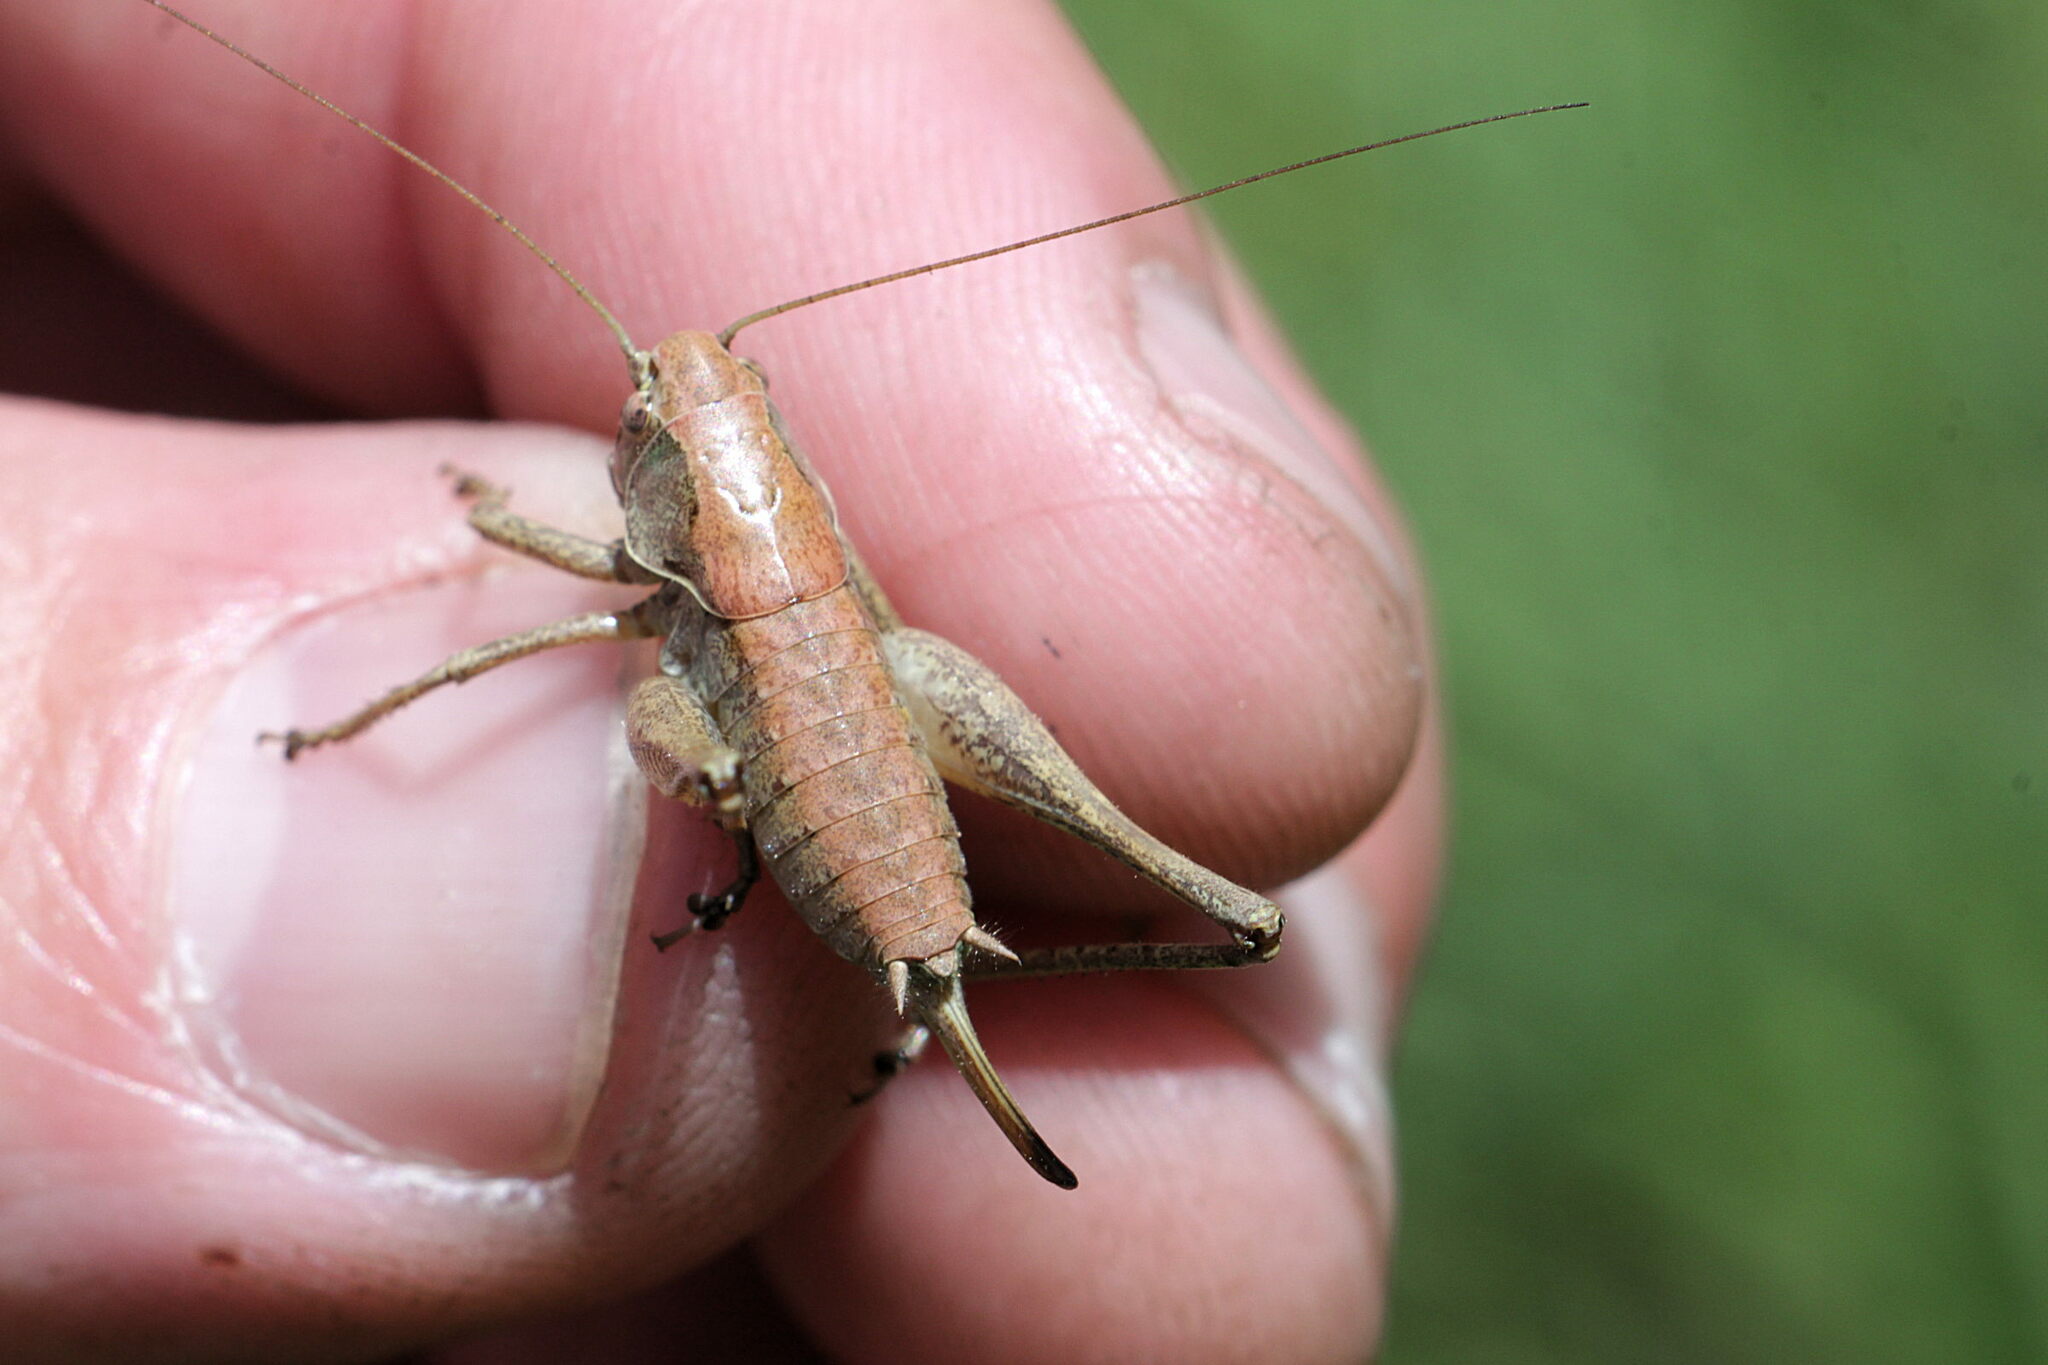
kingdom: Animalia
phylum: Arthropoda
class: Insecta
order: Orthoptera
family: Tettigoniidae
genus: Pholidoptera
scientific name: Pholidoptera griseoaptera
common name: Dark bush-cricket
